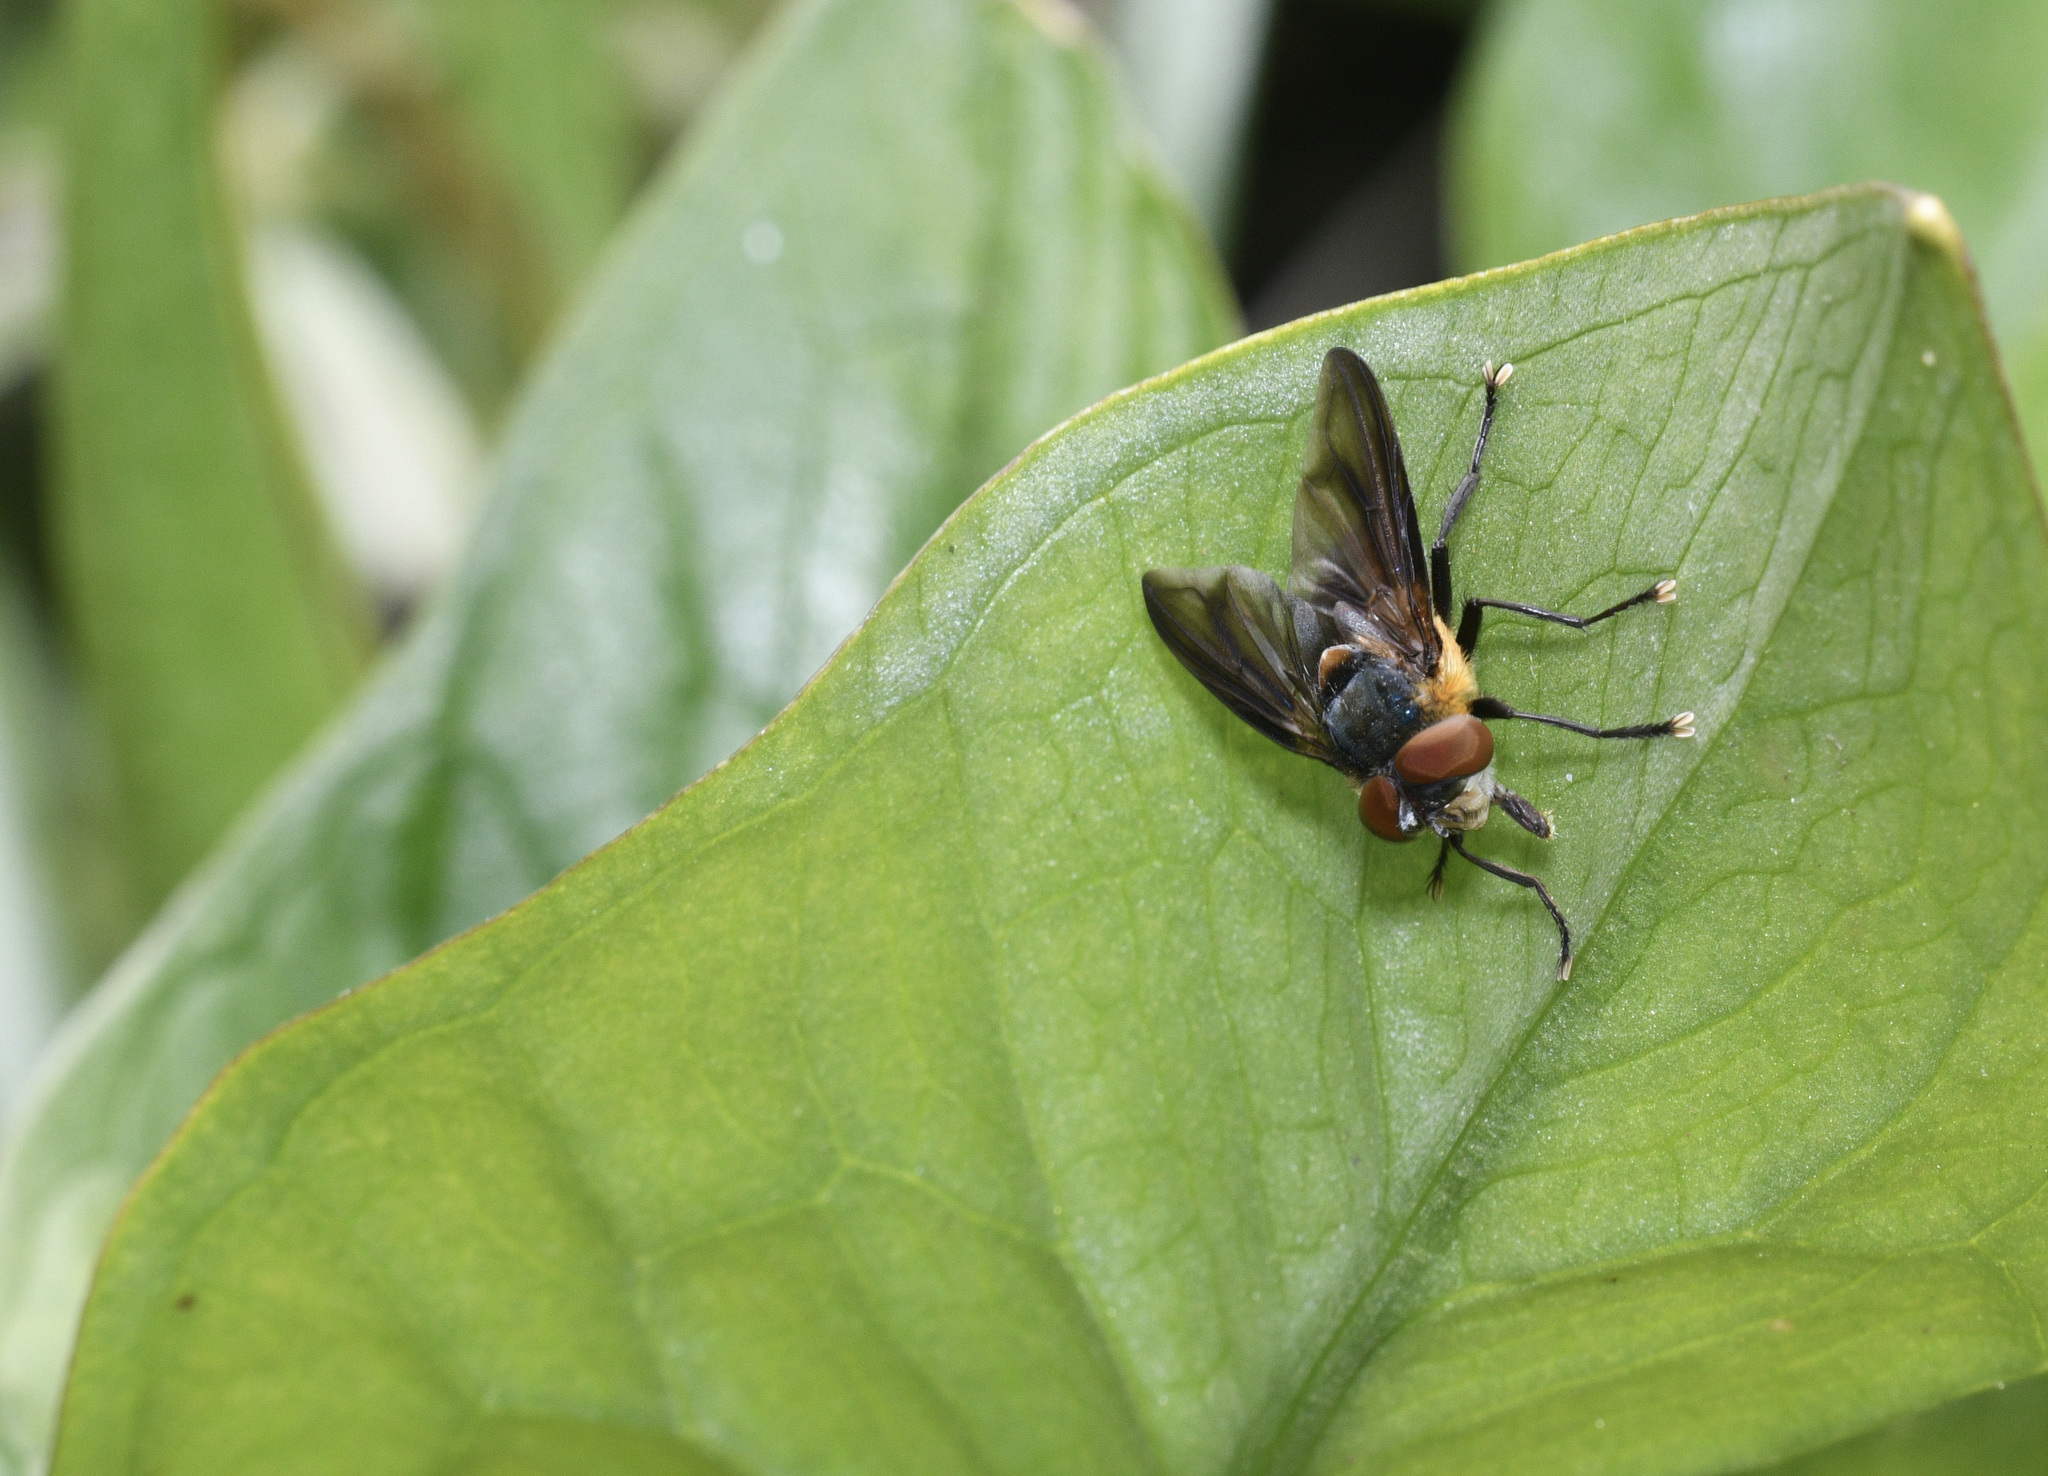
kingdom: Animalia
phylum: Arthropoda
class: Insecta
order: Diptera
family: Tachinidae
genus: Phasia
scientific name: Phasia hemiptera
